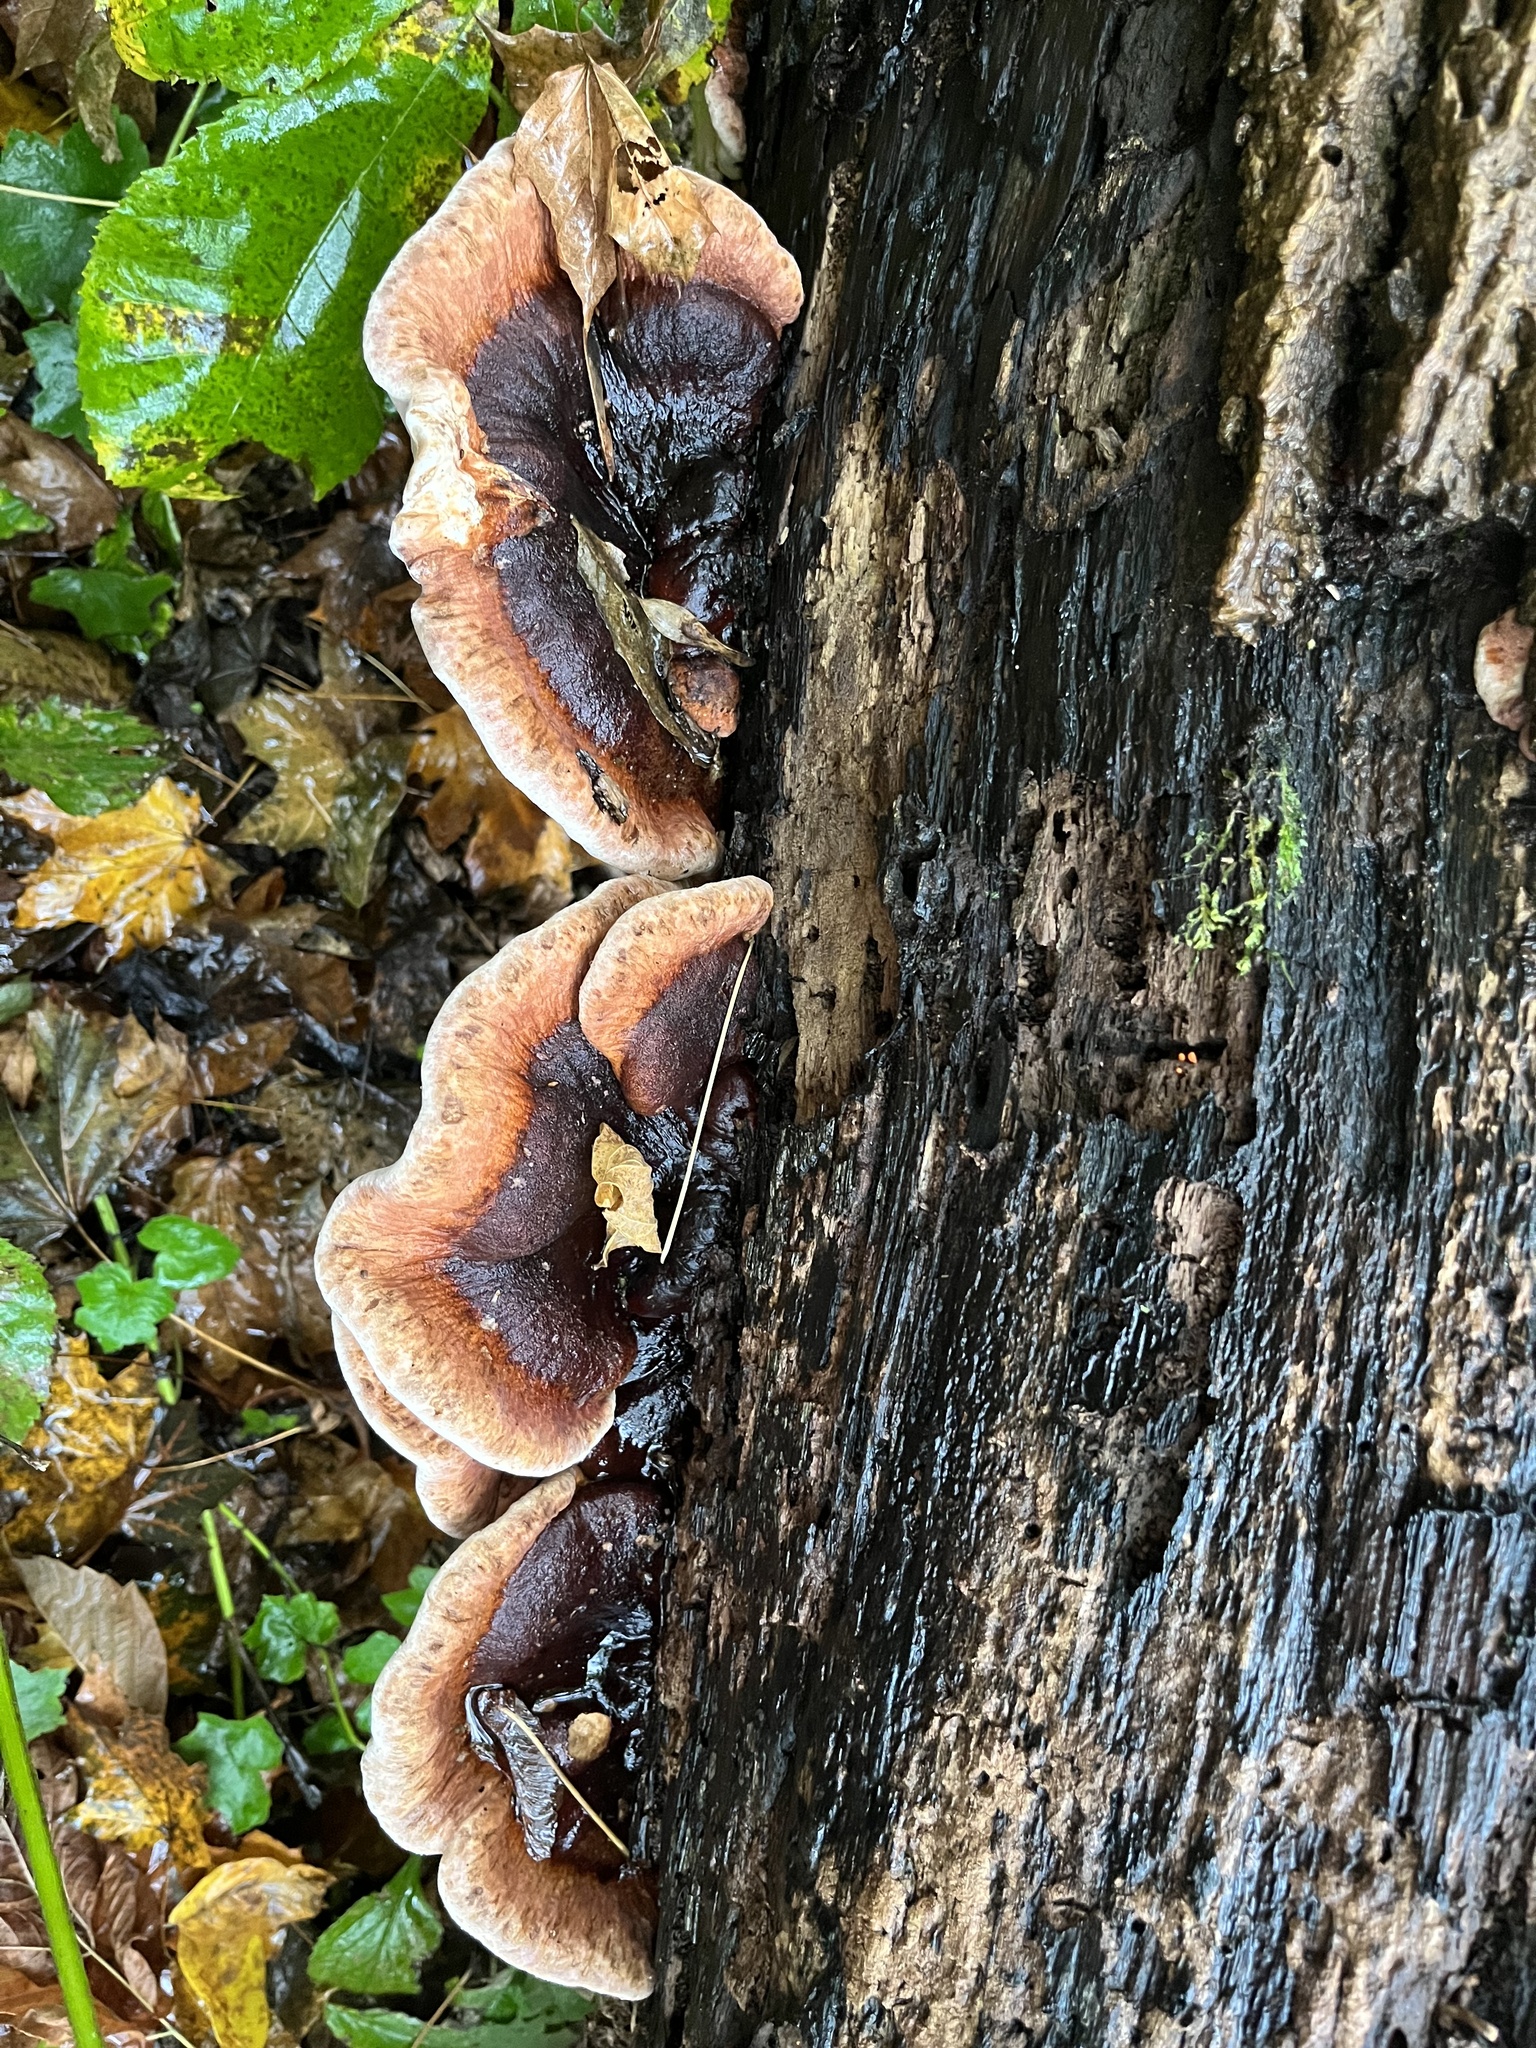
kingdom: Fungi
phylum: Basidiomycota
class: Agaricomycetes
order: Polyporales
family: Ischnodermataceae
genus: Ischnoderma
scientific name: Ischnoderma resinosum
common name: Resinous polypore
